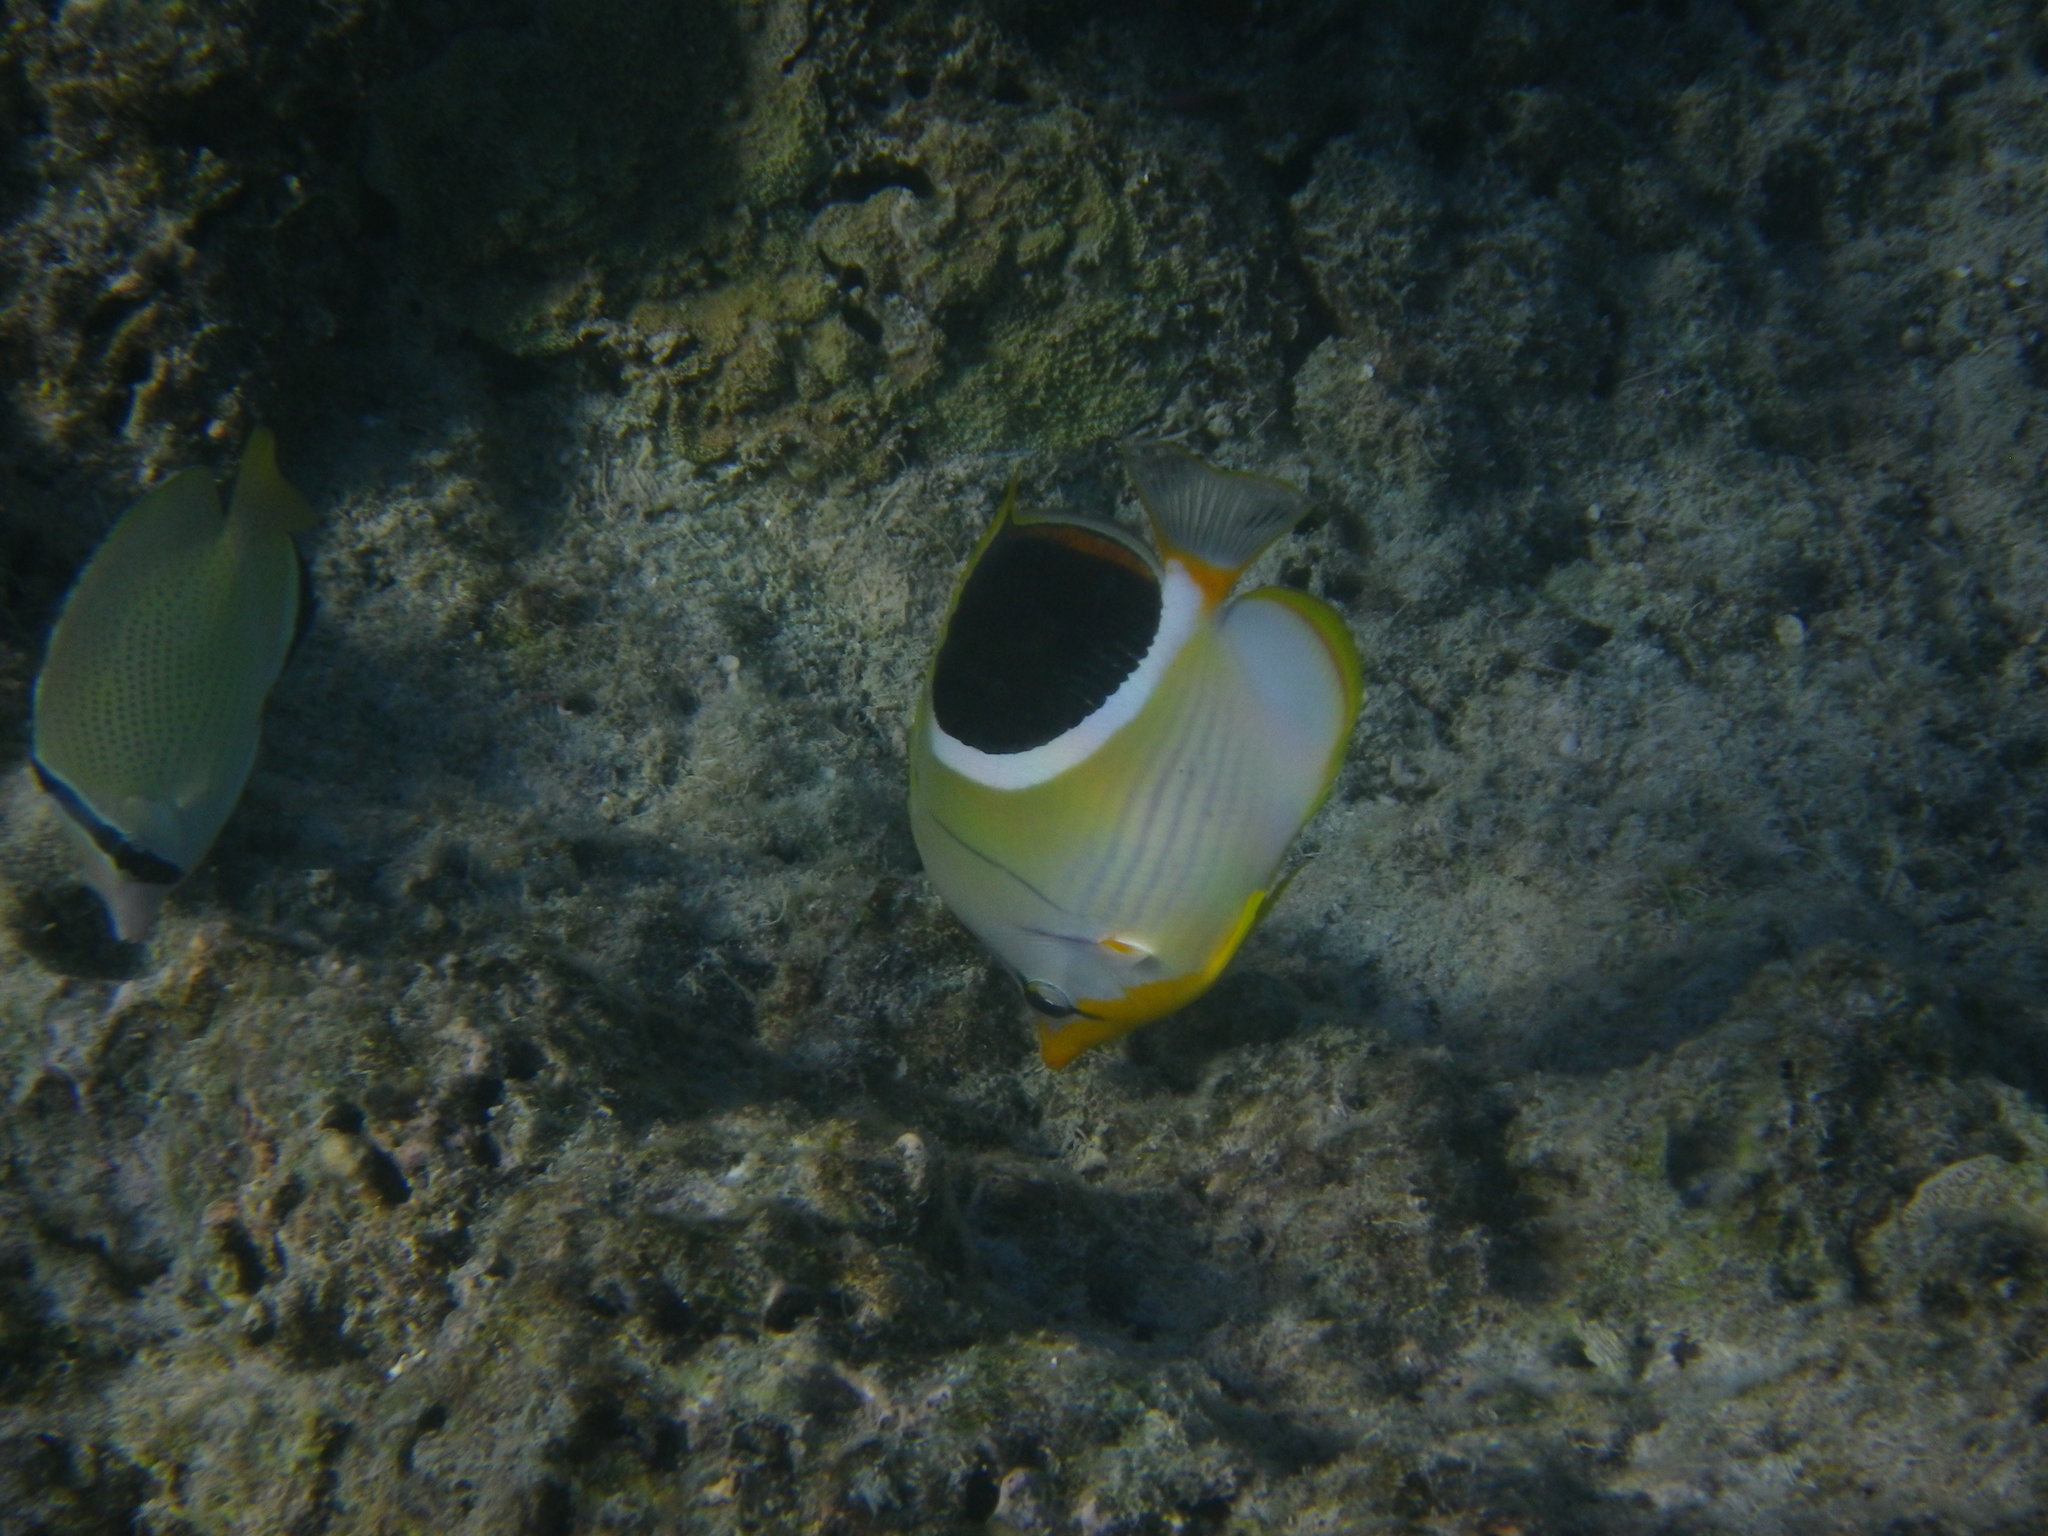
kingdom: Animalia
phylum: Chordata
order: Perciformes
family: Chaetodontidae
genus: Chaetodon
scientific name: Chaetodon ephippium
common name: Saddled butterflyfish
